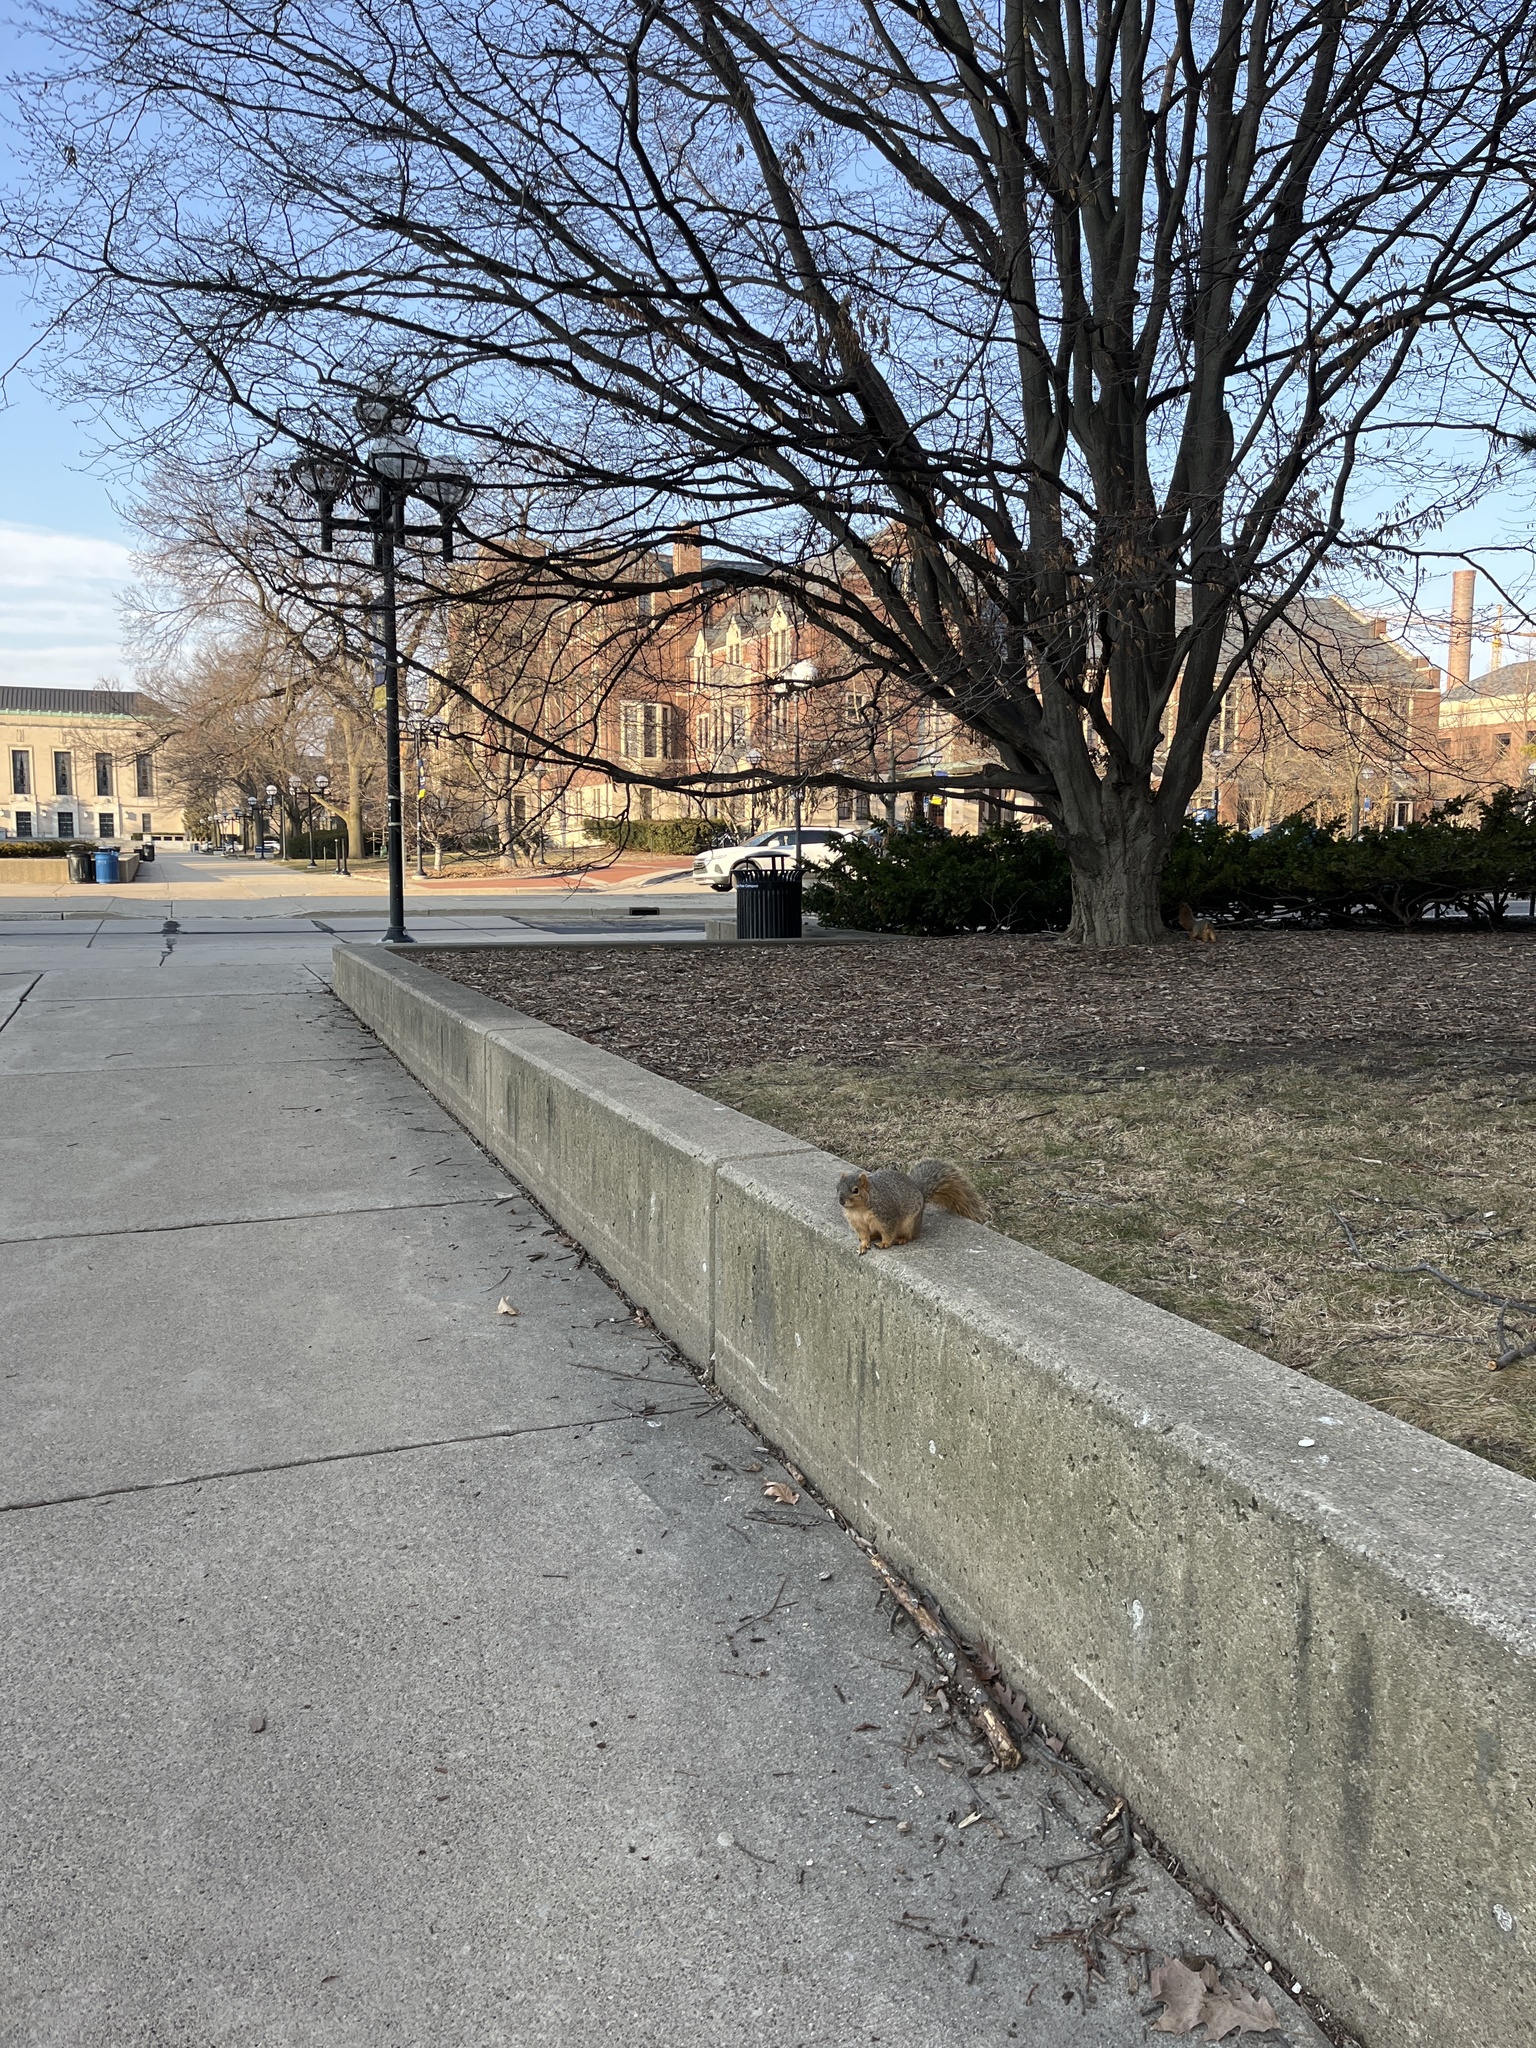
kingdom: Animalia
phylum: Chordata
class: Mammalia
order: Rodentia
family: Sciuridae
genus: Sciurus
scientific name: Sciurus niger
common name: Fox squirrel
